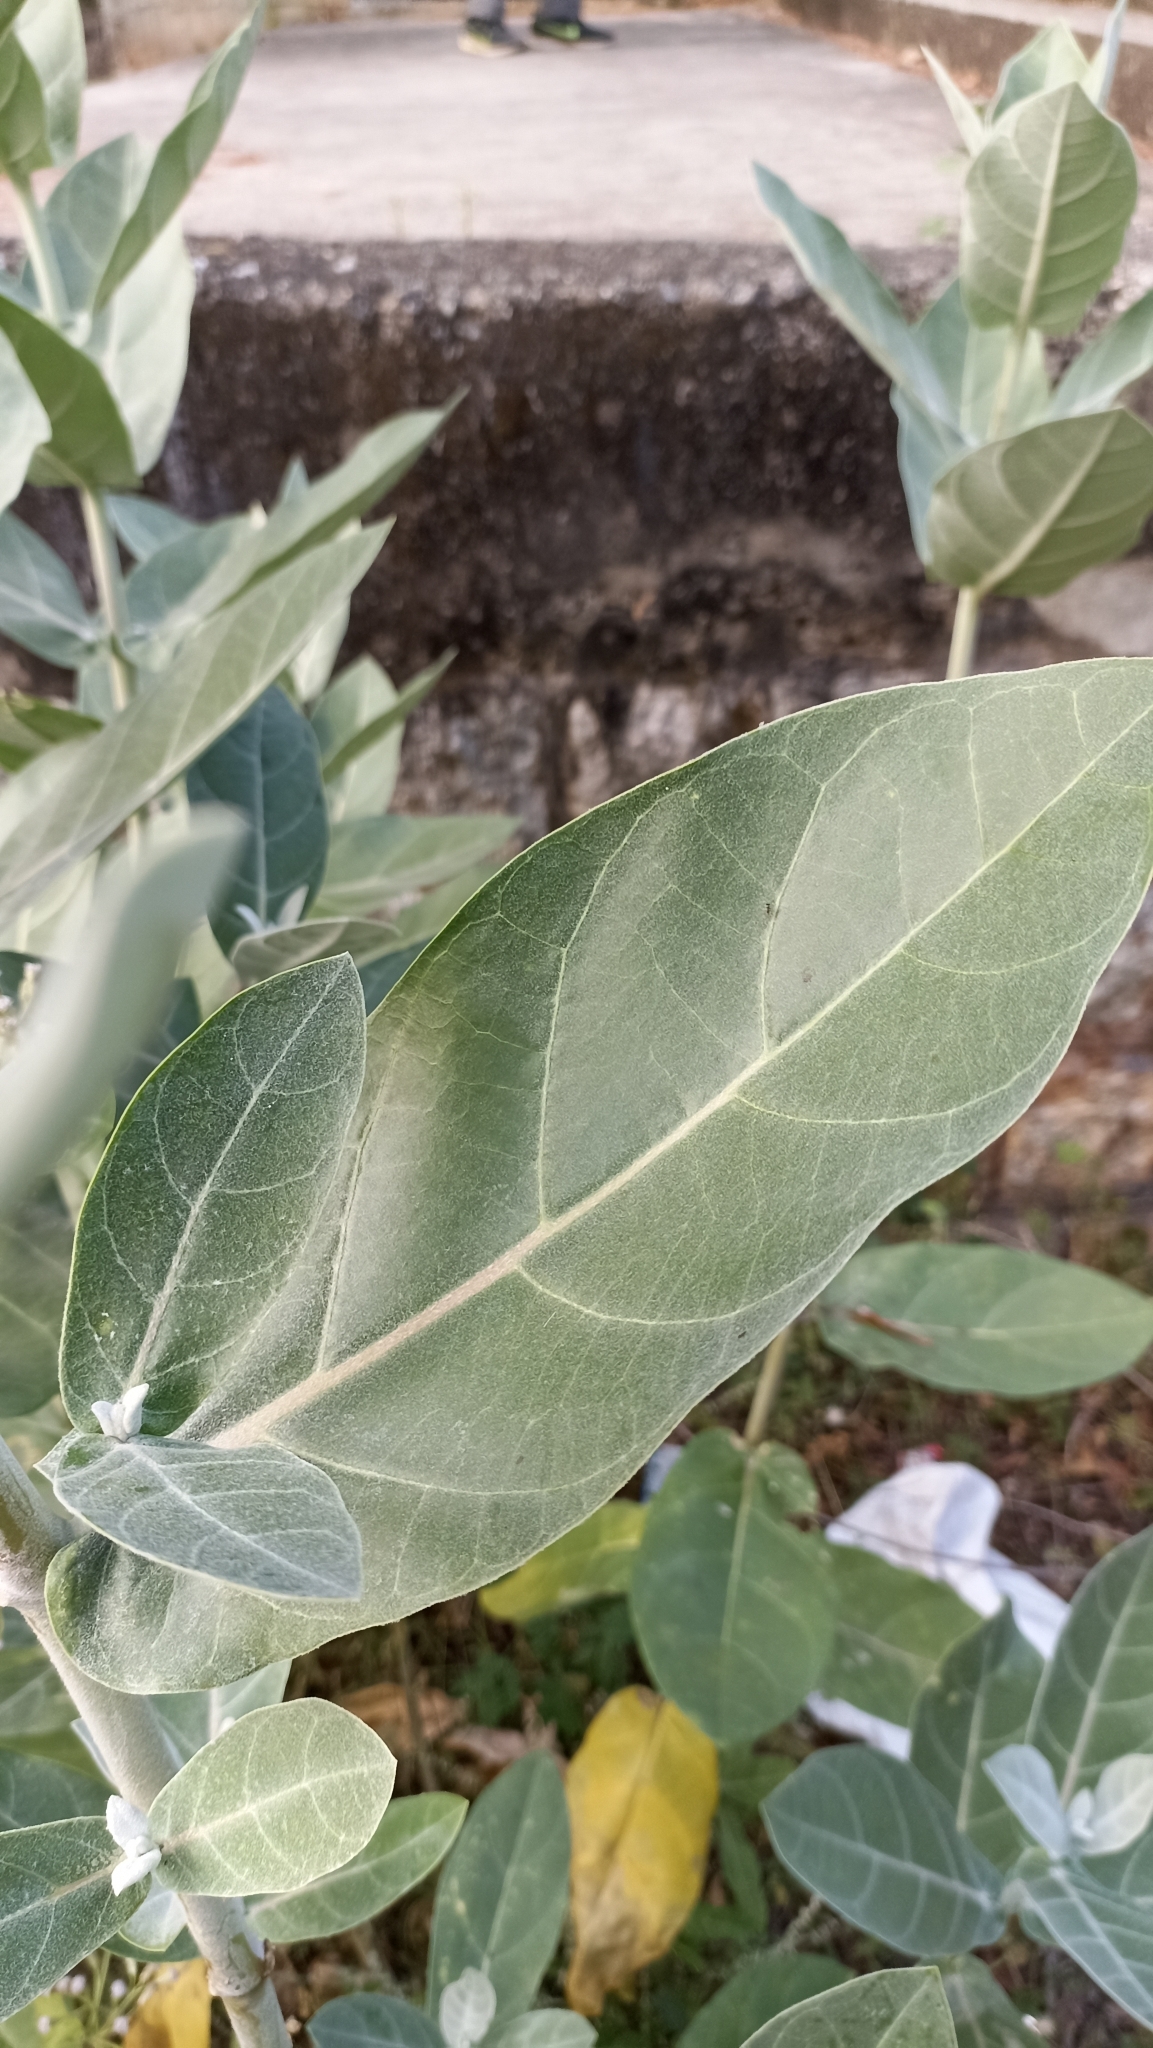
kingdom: Plantae
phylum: Tracheophyta
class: Magnoliopsida
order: Gentianales
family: Apocynaceae
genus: Calotropis
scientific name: Calotropis gigantea
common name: Crown flower
